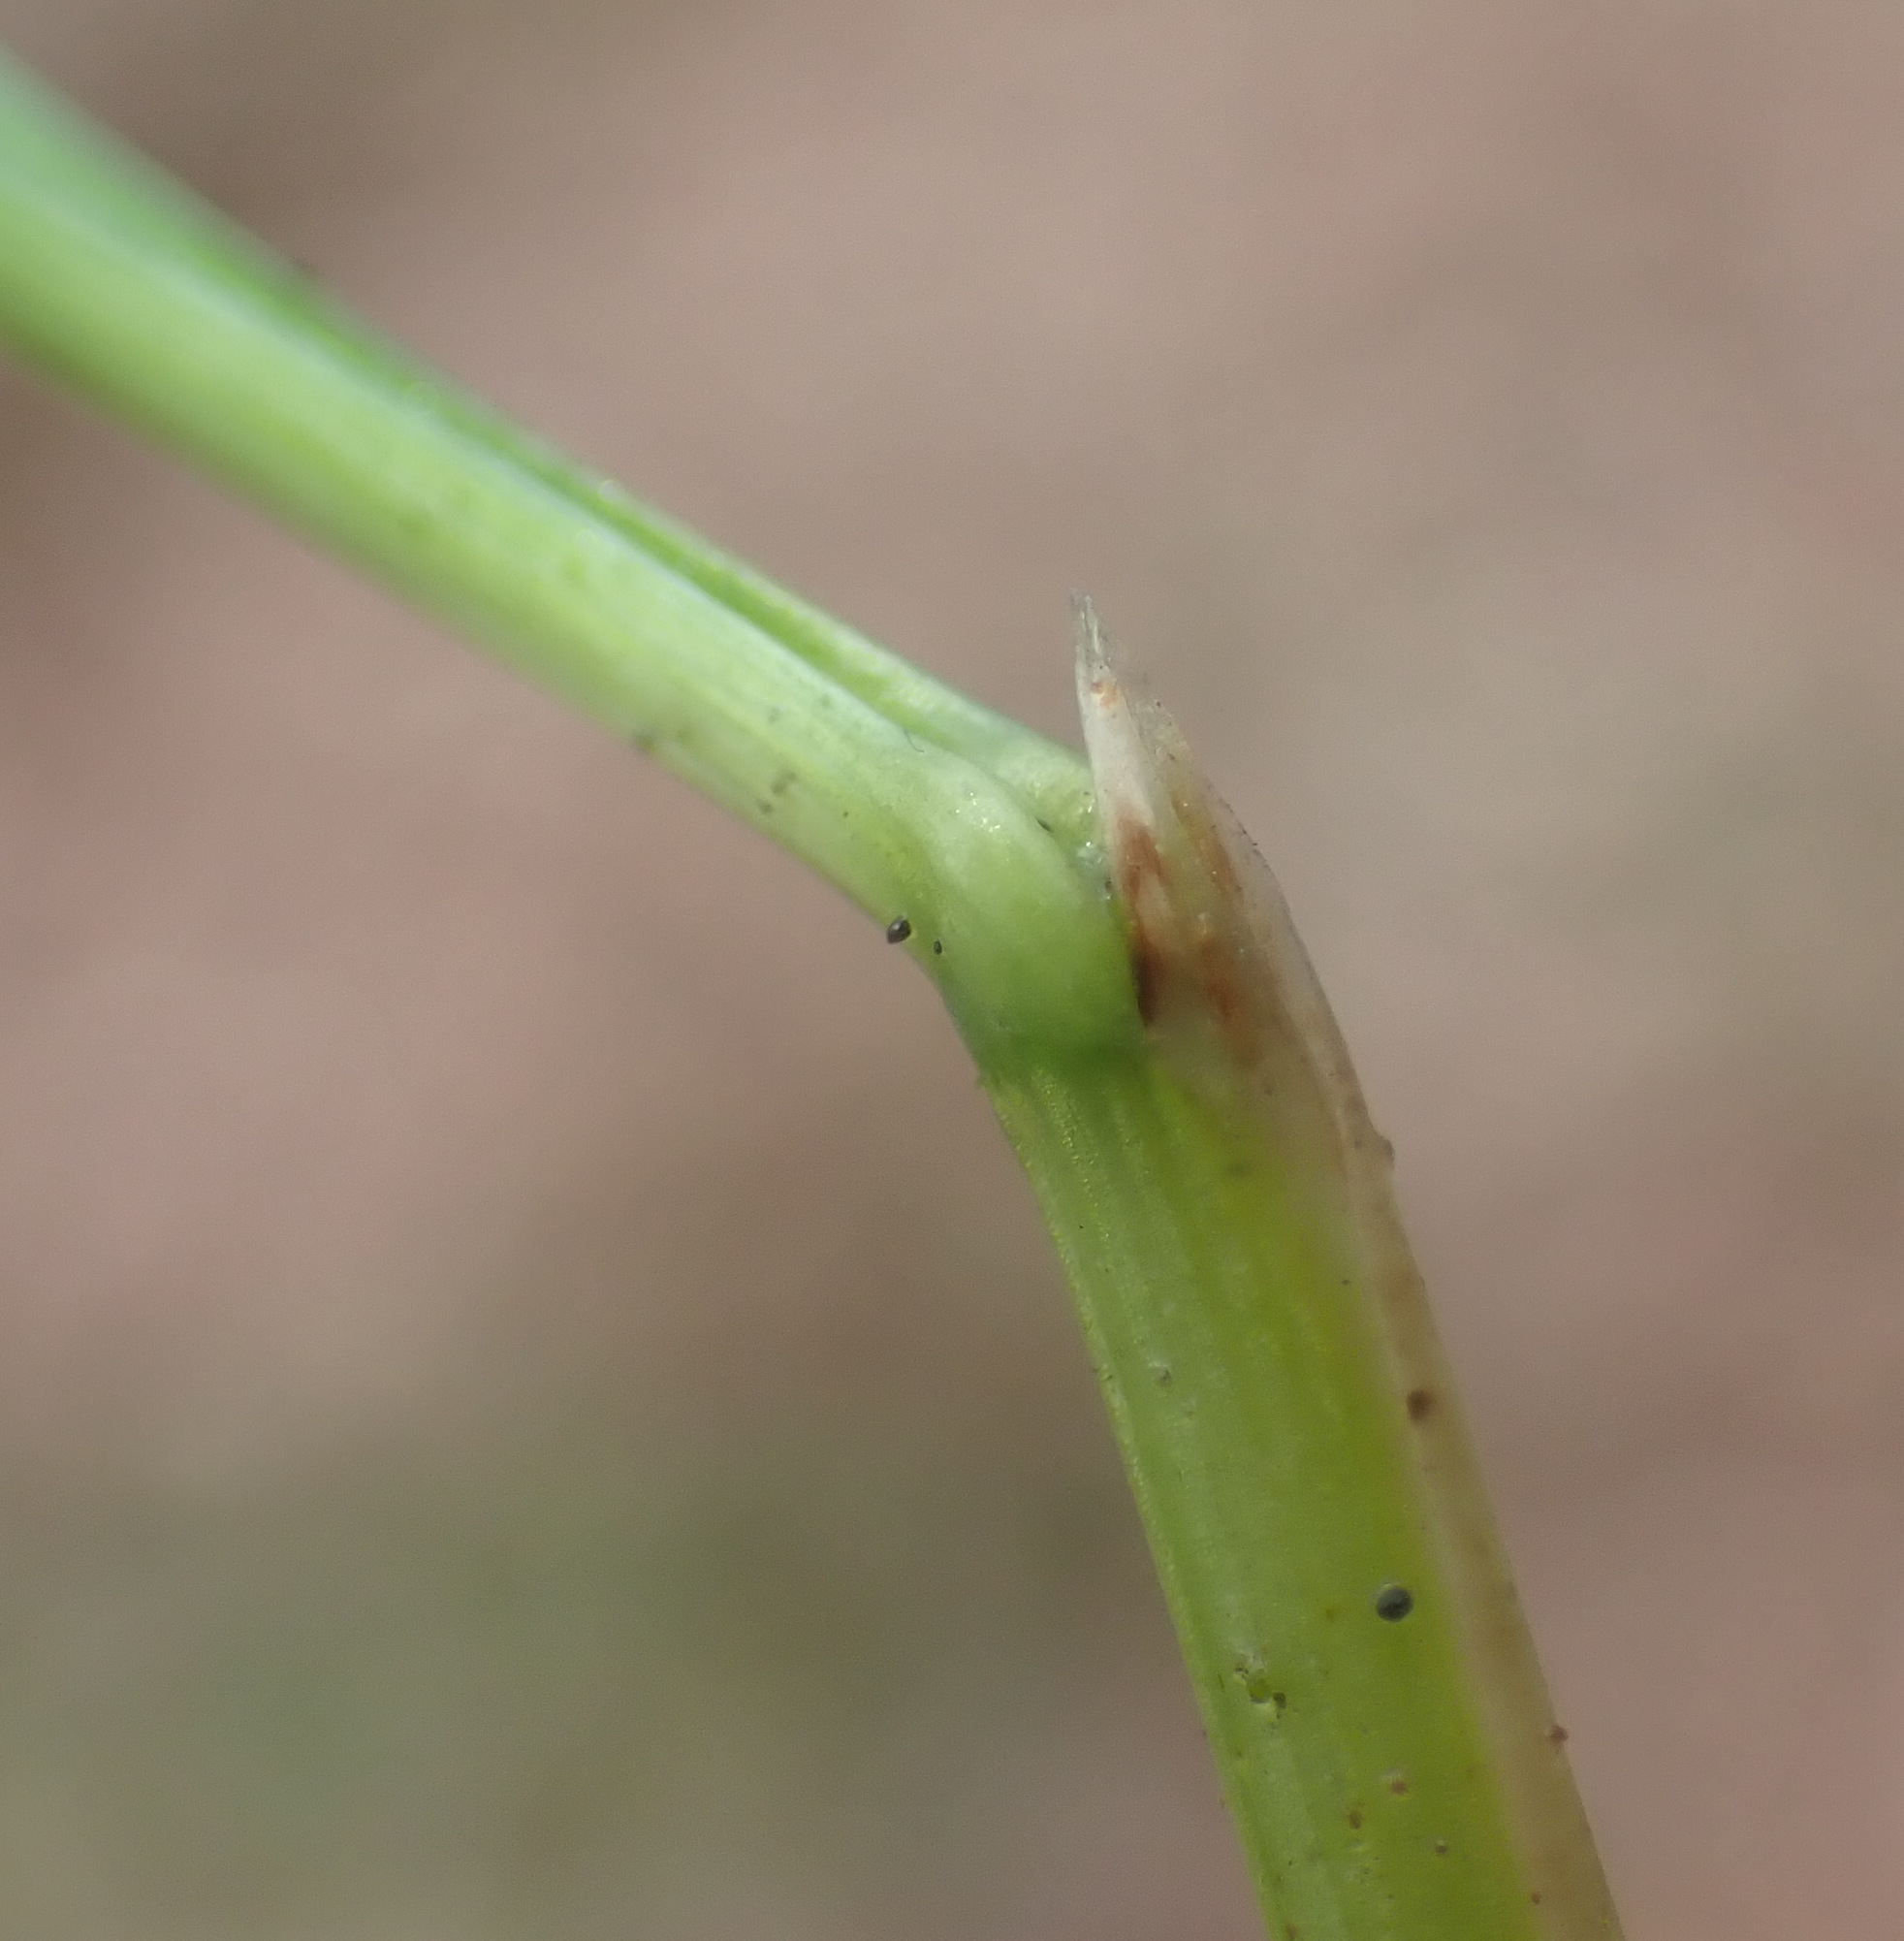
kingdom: Plantae
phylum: Tracheophyta
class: Liliopsida
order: Poales
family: Poaceae
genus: Deschampsia
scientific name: Deschampsia cespitosa
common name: Tufted hair-grass
